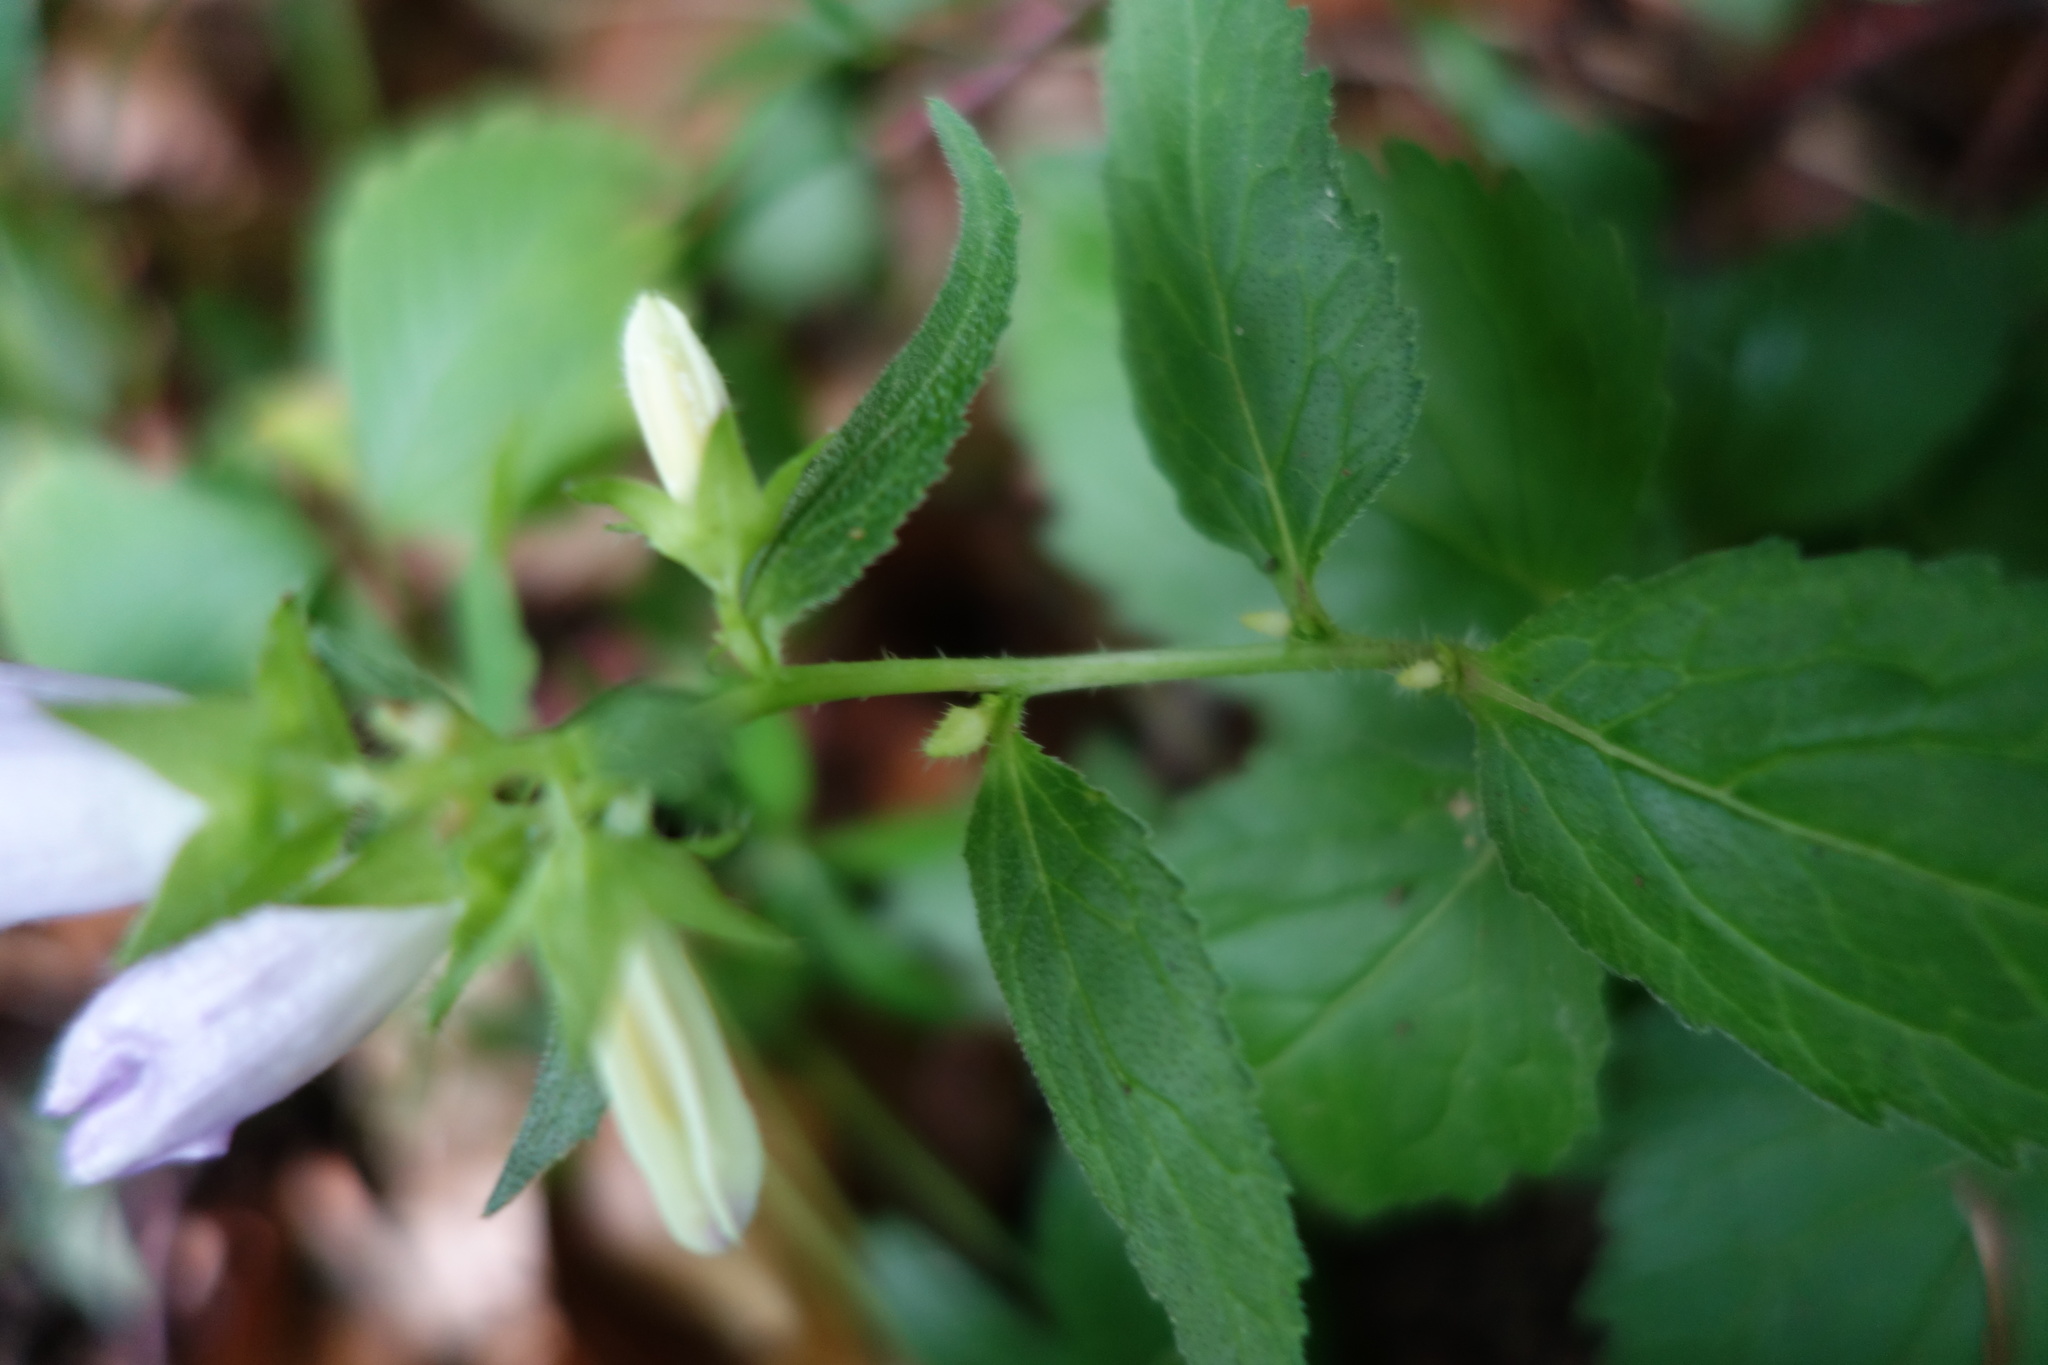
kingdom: Plantae
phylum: Tracheophyta
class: Magnoliopsida
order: Asterales
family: Campanulaceae
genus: Campanula
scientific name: Campanula trachelium
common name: Nettle-leaved bellflower
